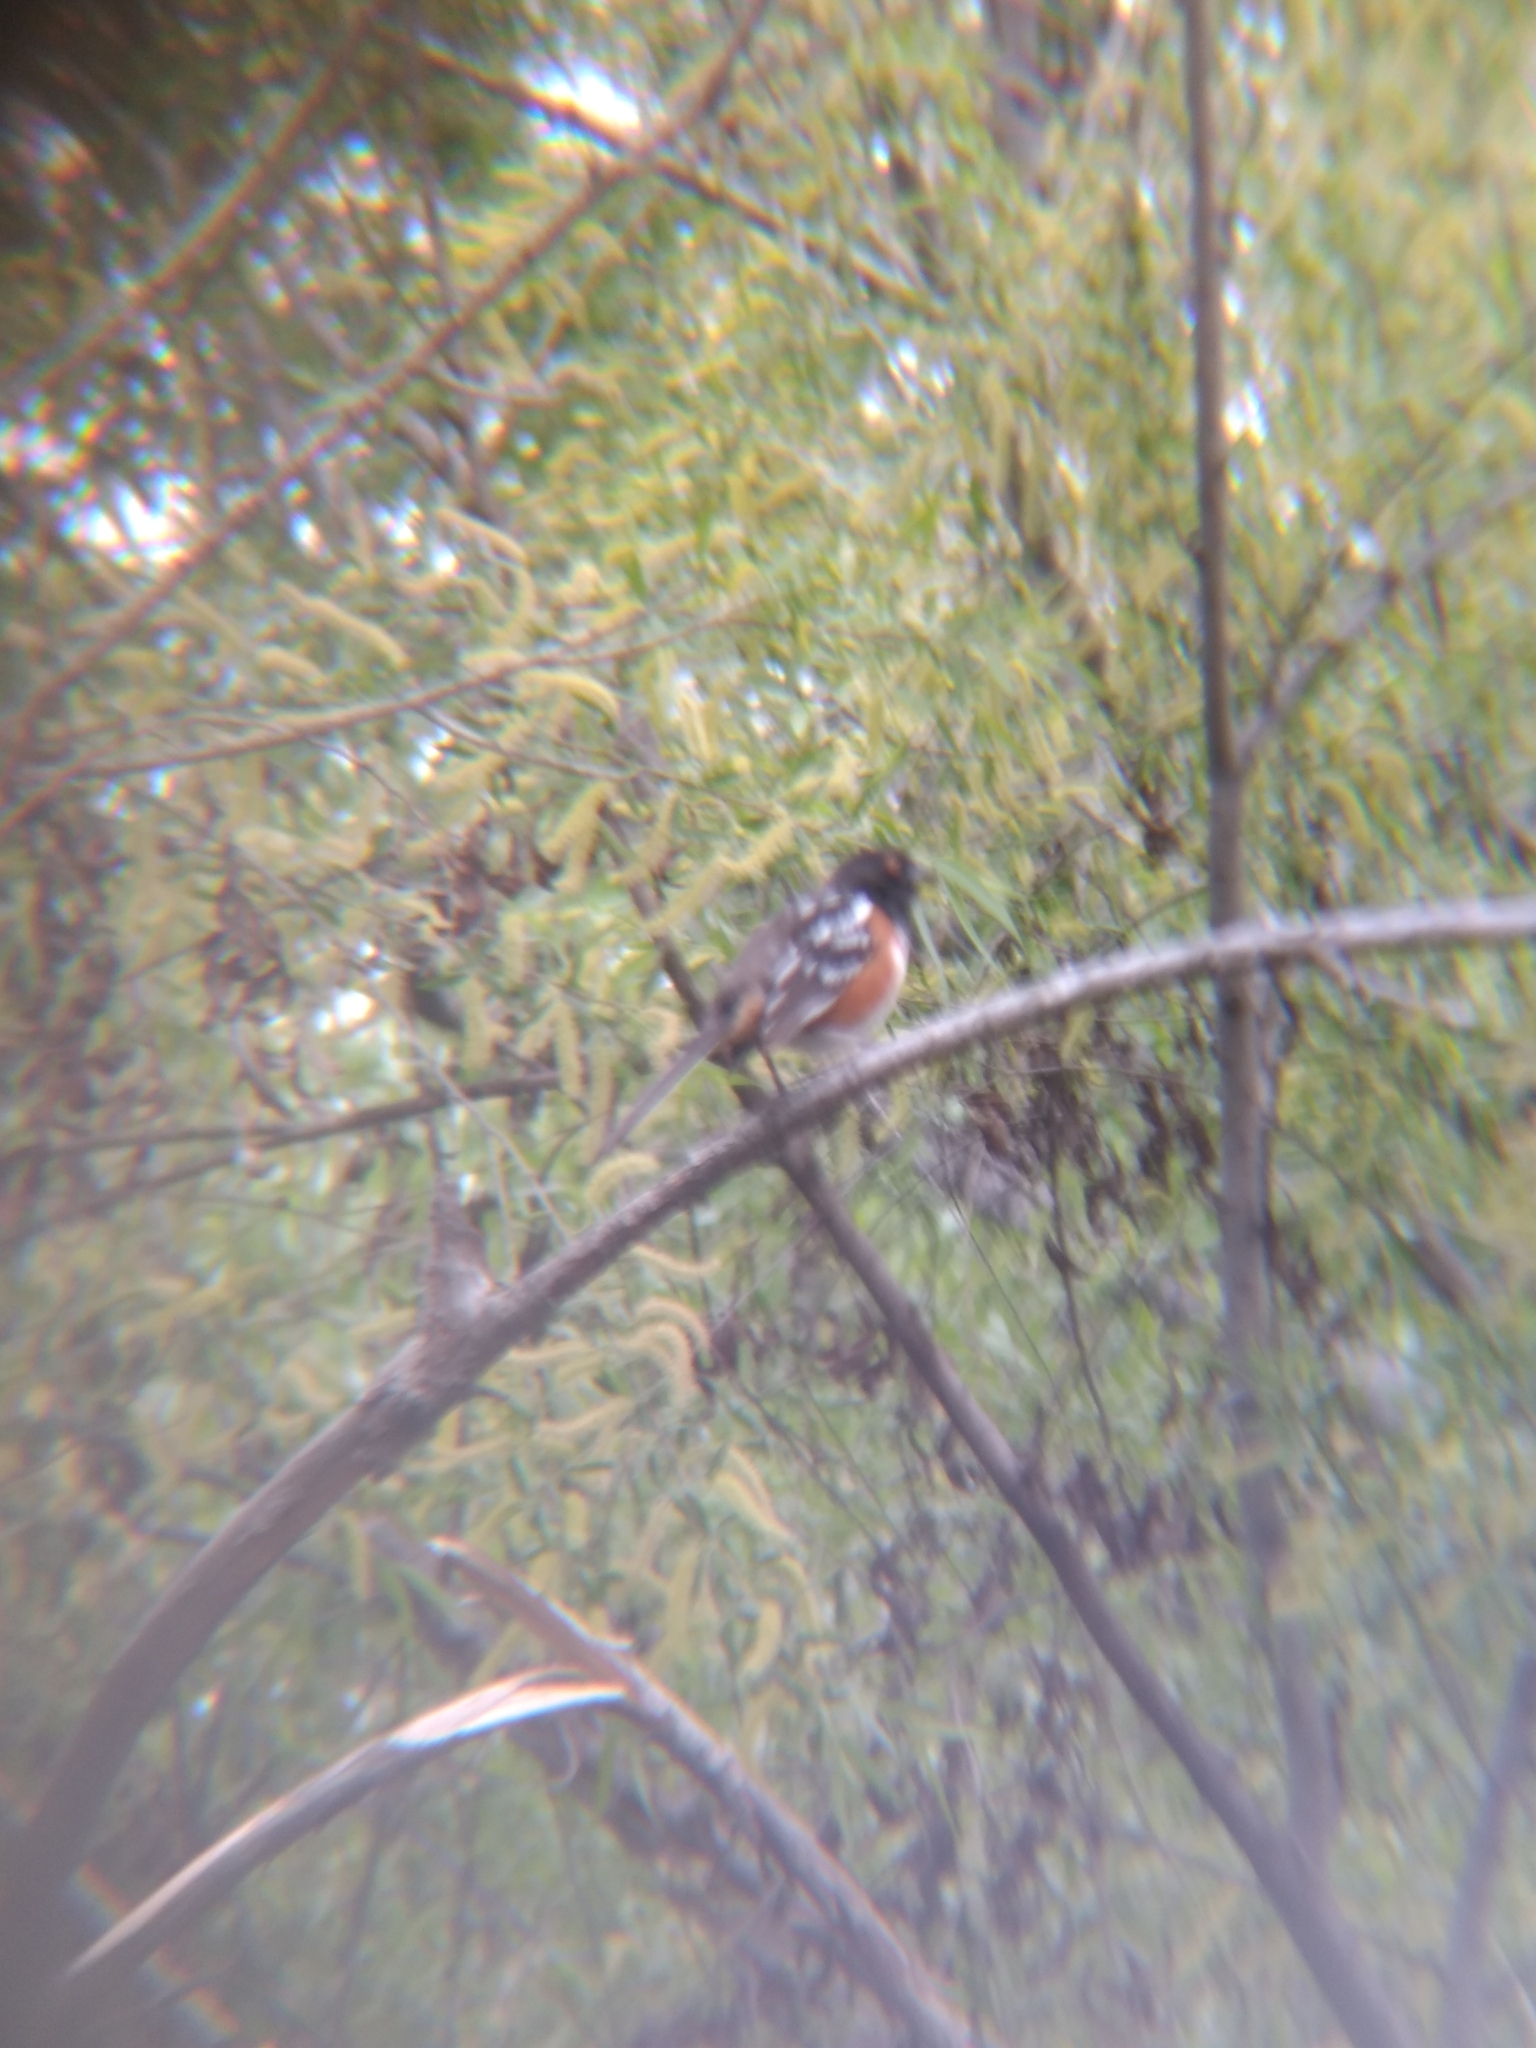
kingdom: Animalia
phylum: Chordata
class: Aves
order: Passeriformes
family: Passerellidae
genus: Pipilo
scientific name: Pipilo maculatus
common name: Spotted towhee
